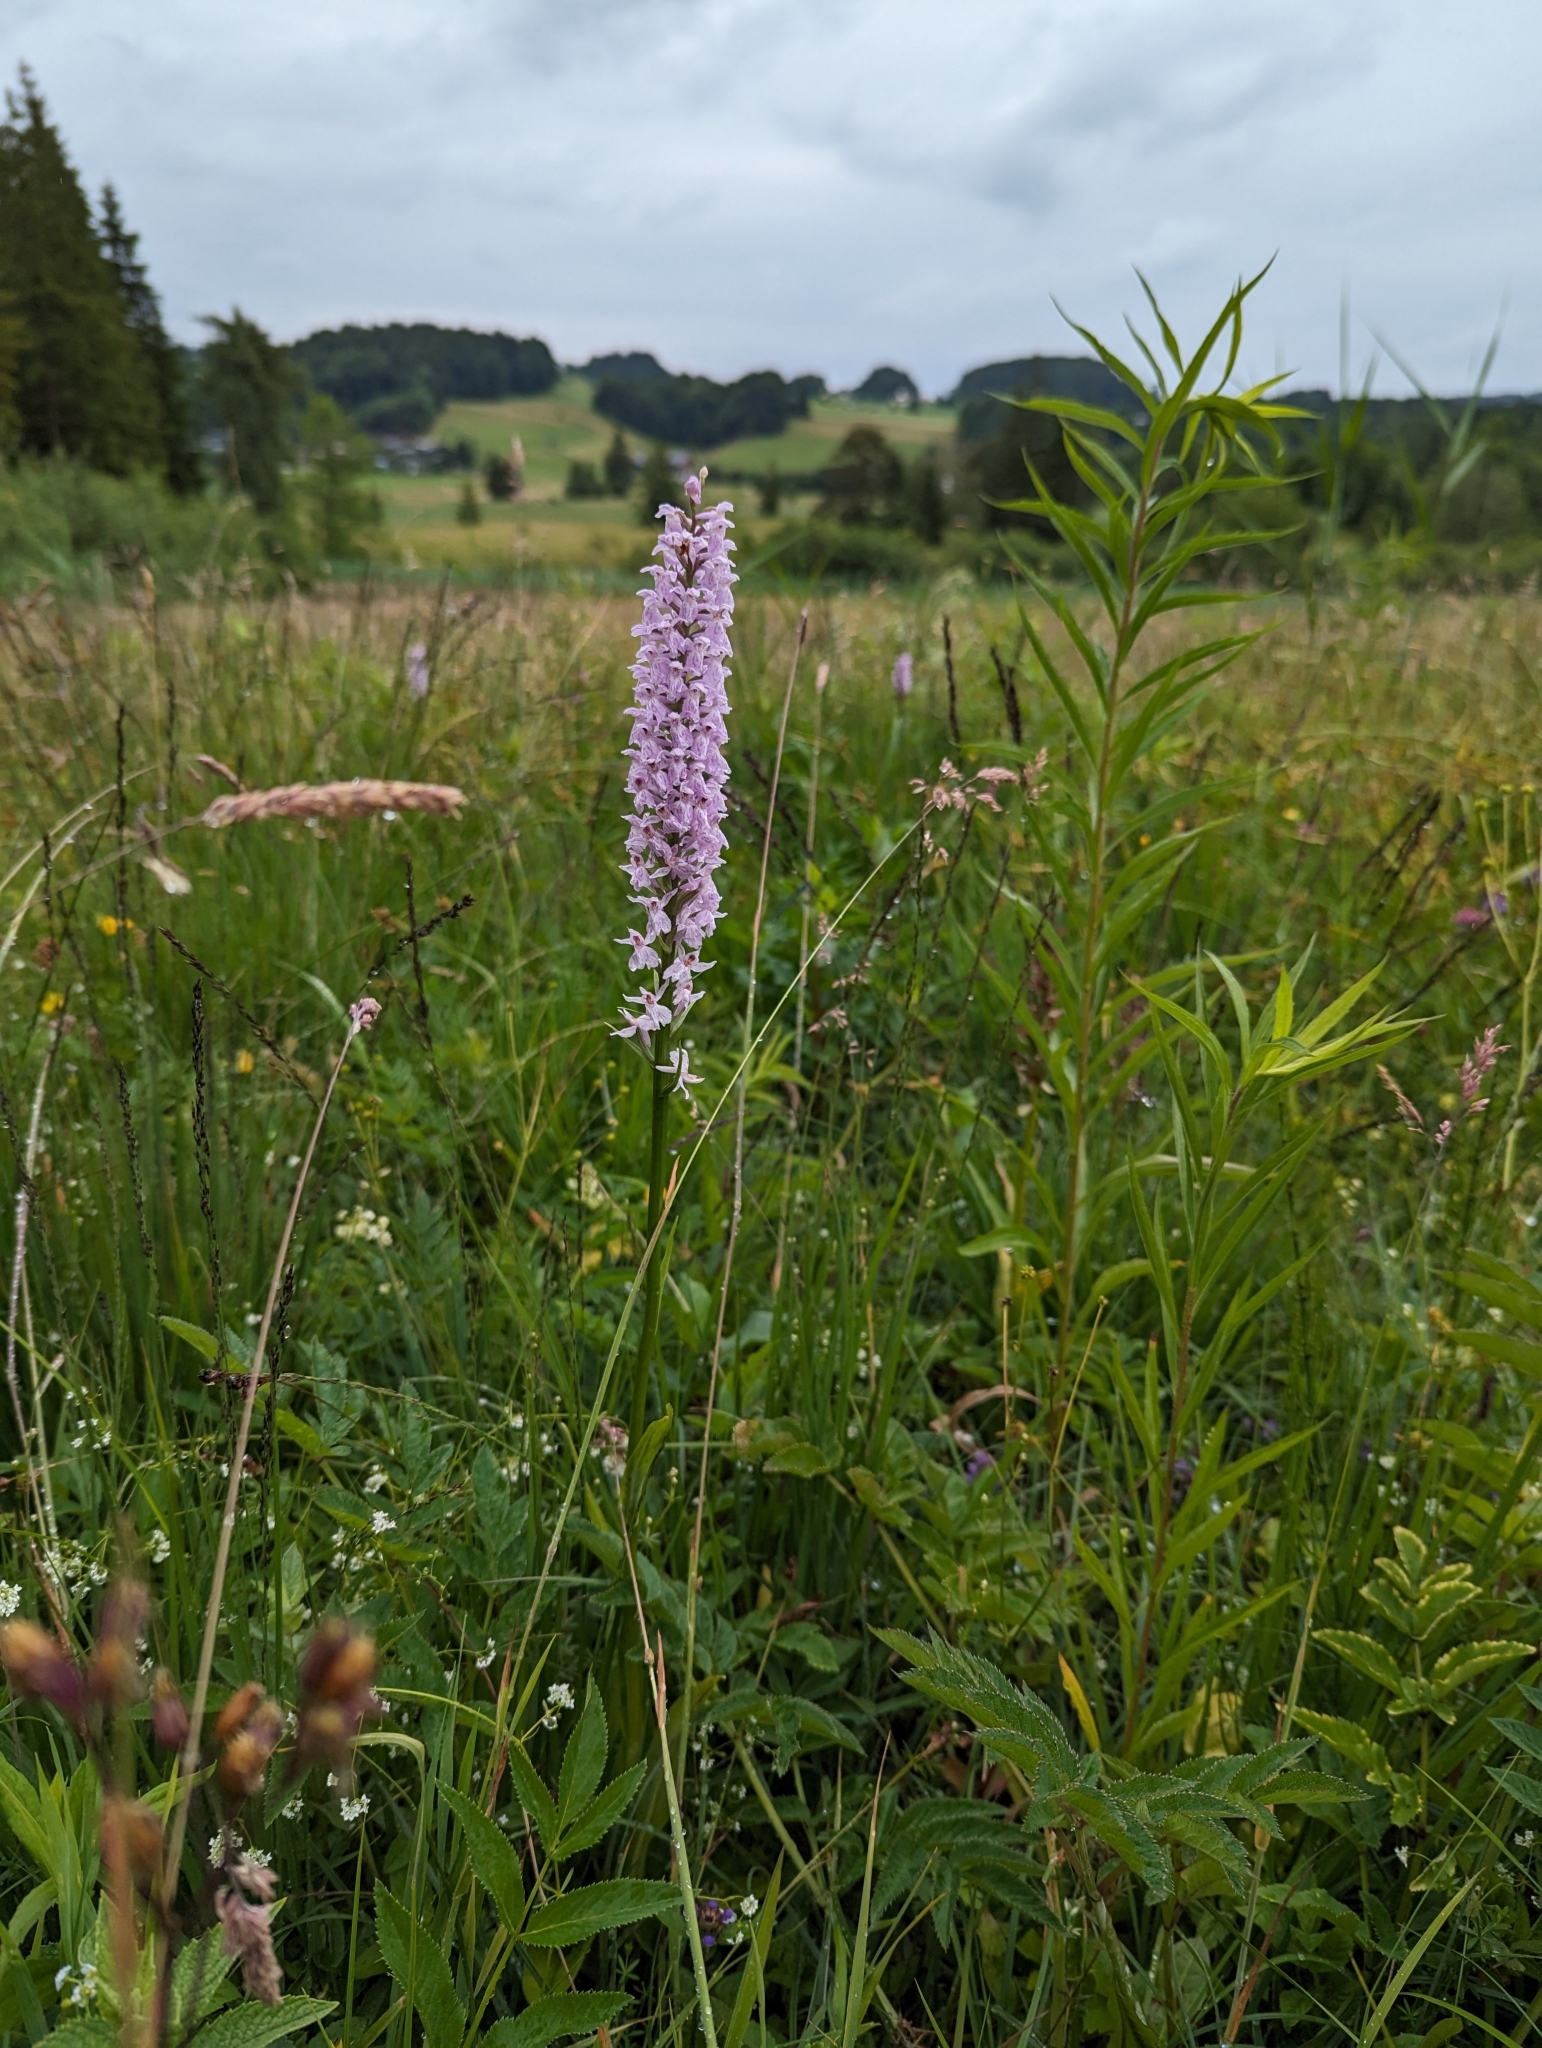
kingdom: Plantae
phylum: Tracheophyta
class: Liliopsida
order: Asparagales
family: Orchidaceae
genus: Dactylorhiza
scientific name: Dactylorhiza maculata
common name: Heath spotted-orchid
